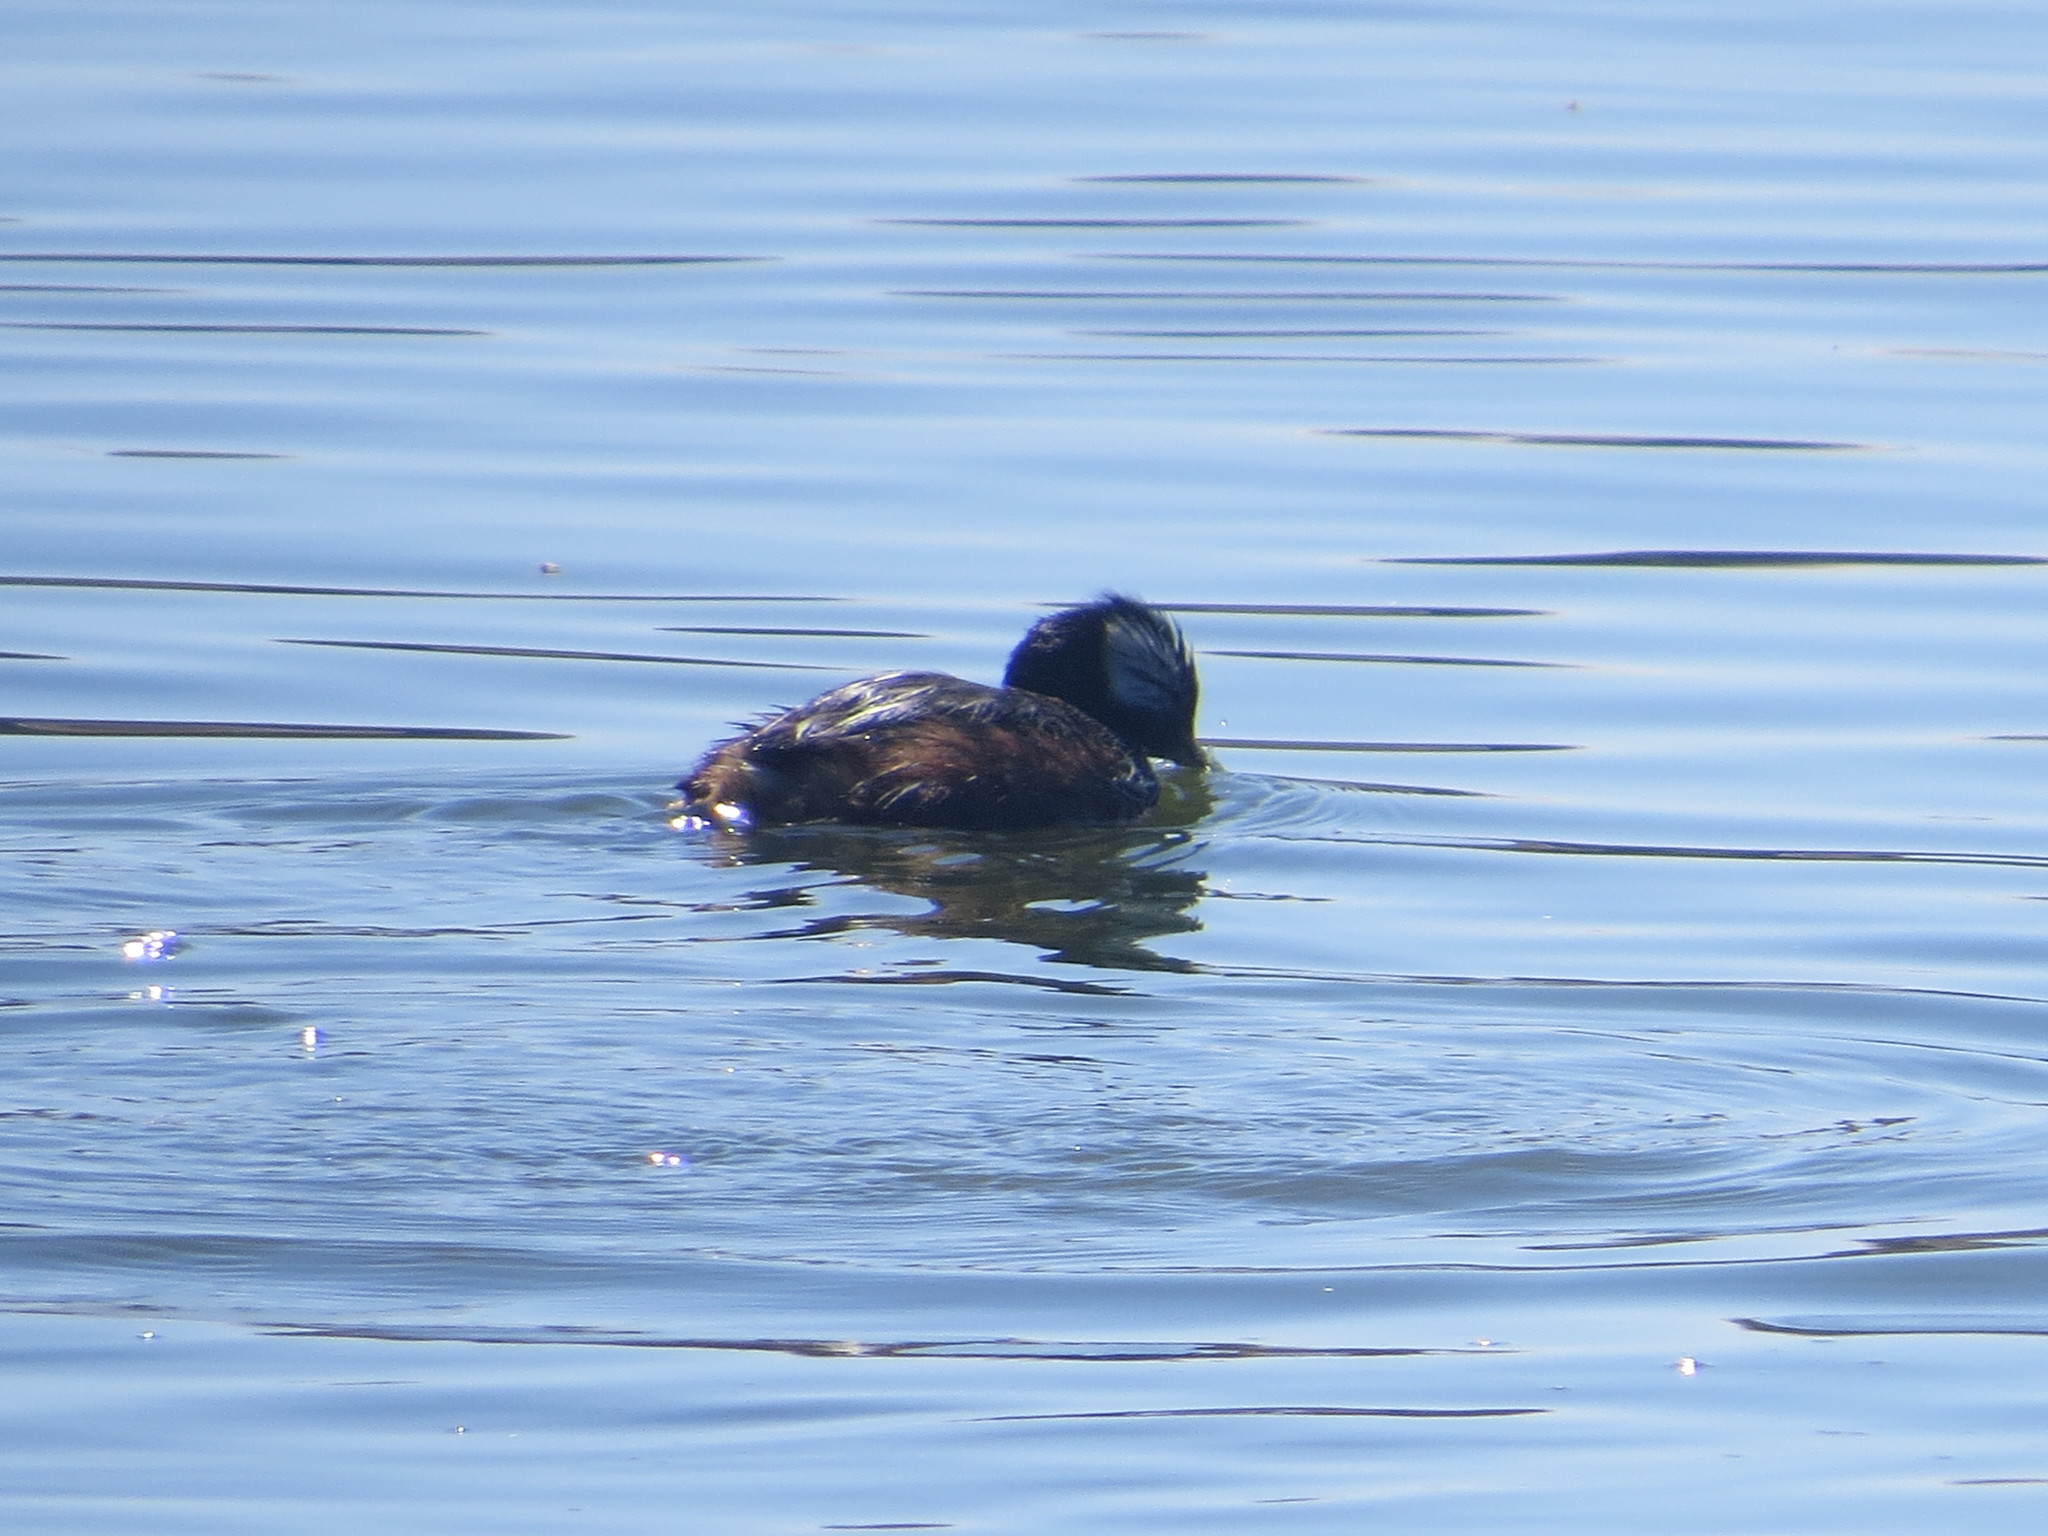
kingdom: Animalia
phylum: Chordata
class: Aves
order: Podicipediformes
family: Podicipedidae
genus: Rollandia
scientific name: Rollandia rolland
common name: White-tufted grebe
